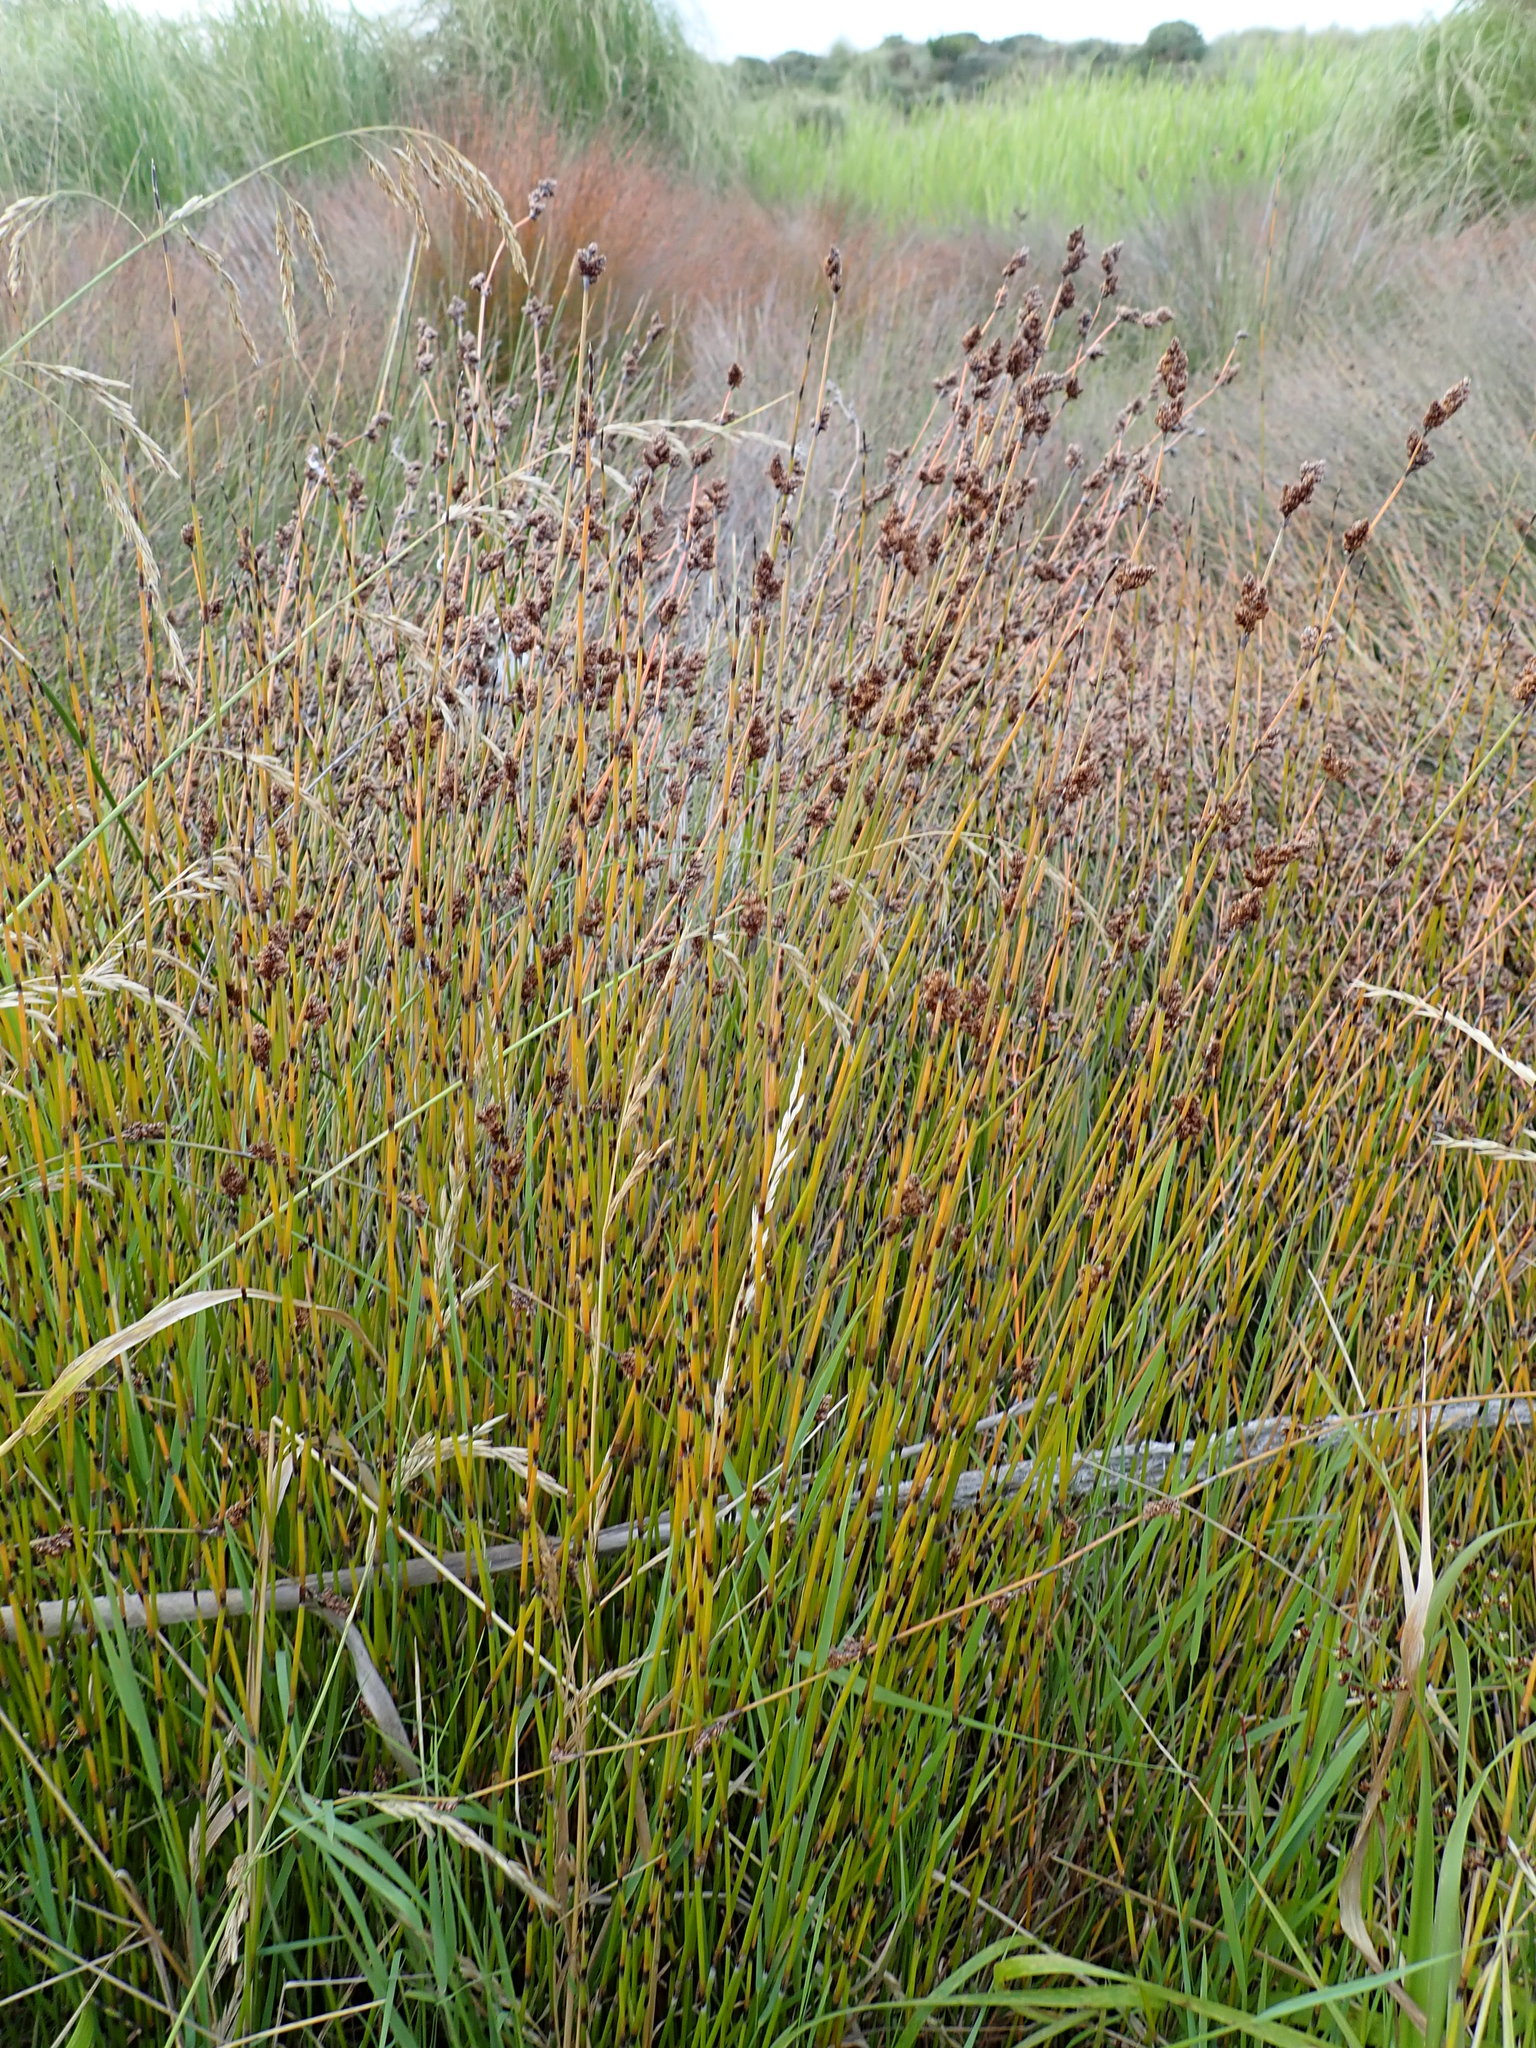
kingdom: Plantae
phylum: Tracheophyta
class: Liliopsida
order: Poales
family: Restionaceae
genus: Apodasmia
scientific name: Apodasmia similis
